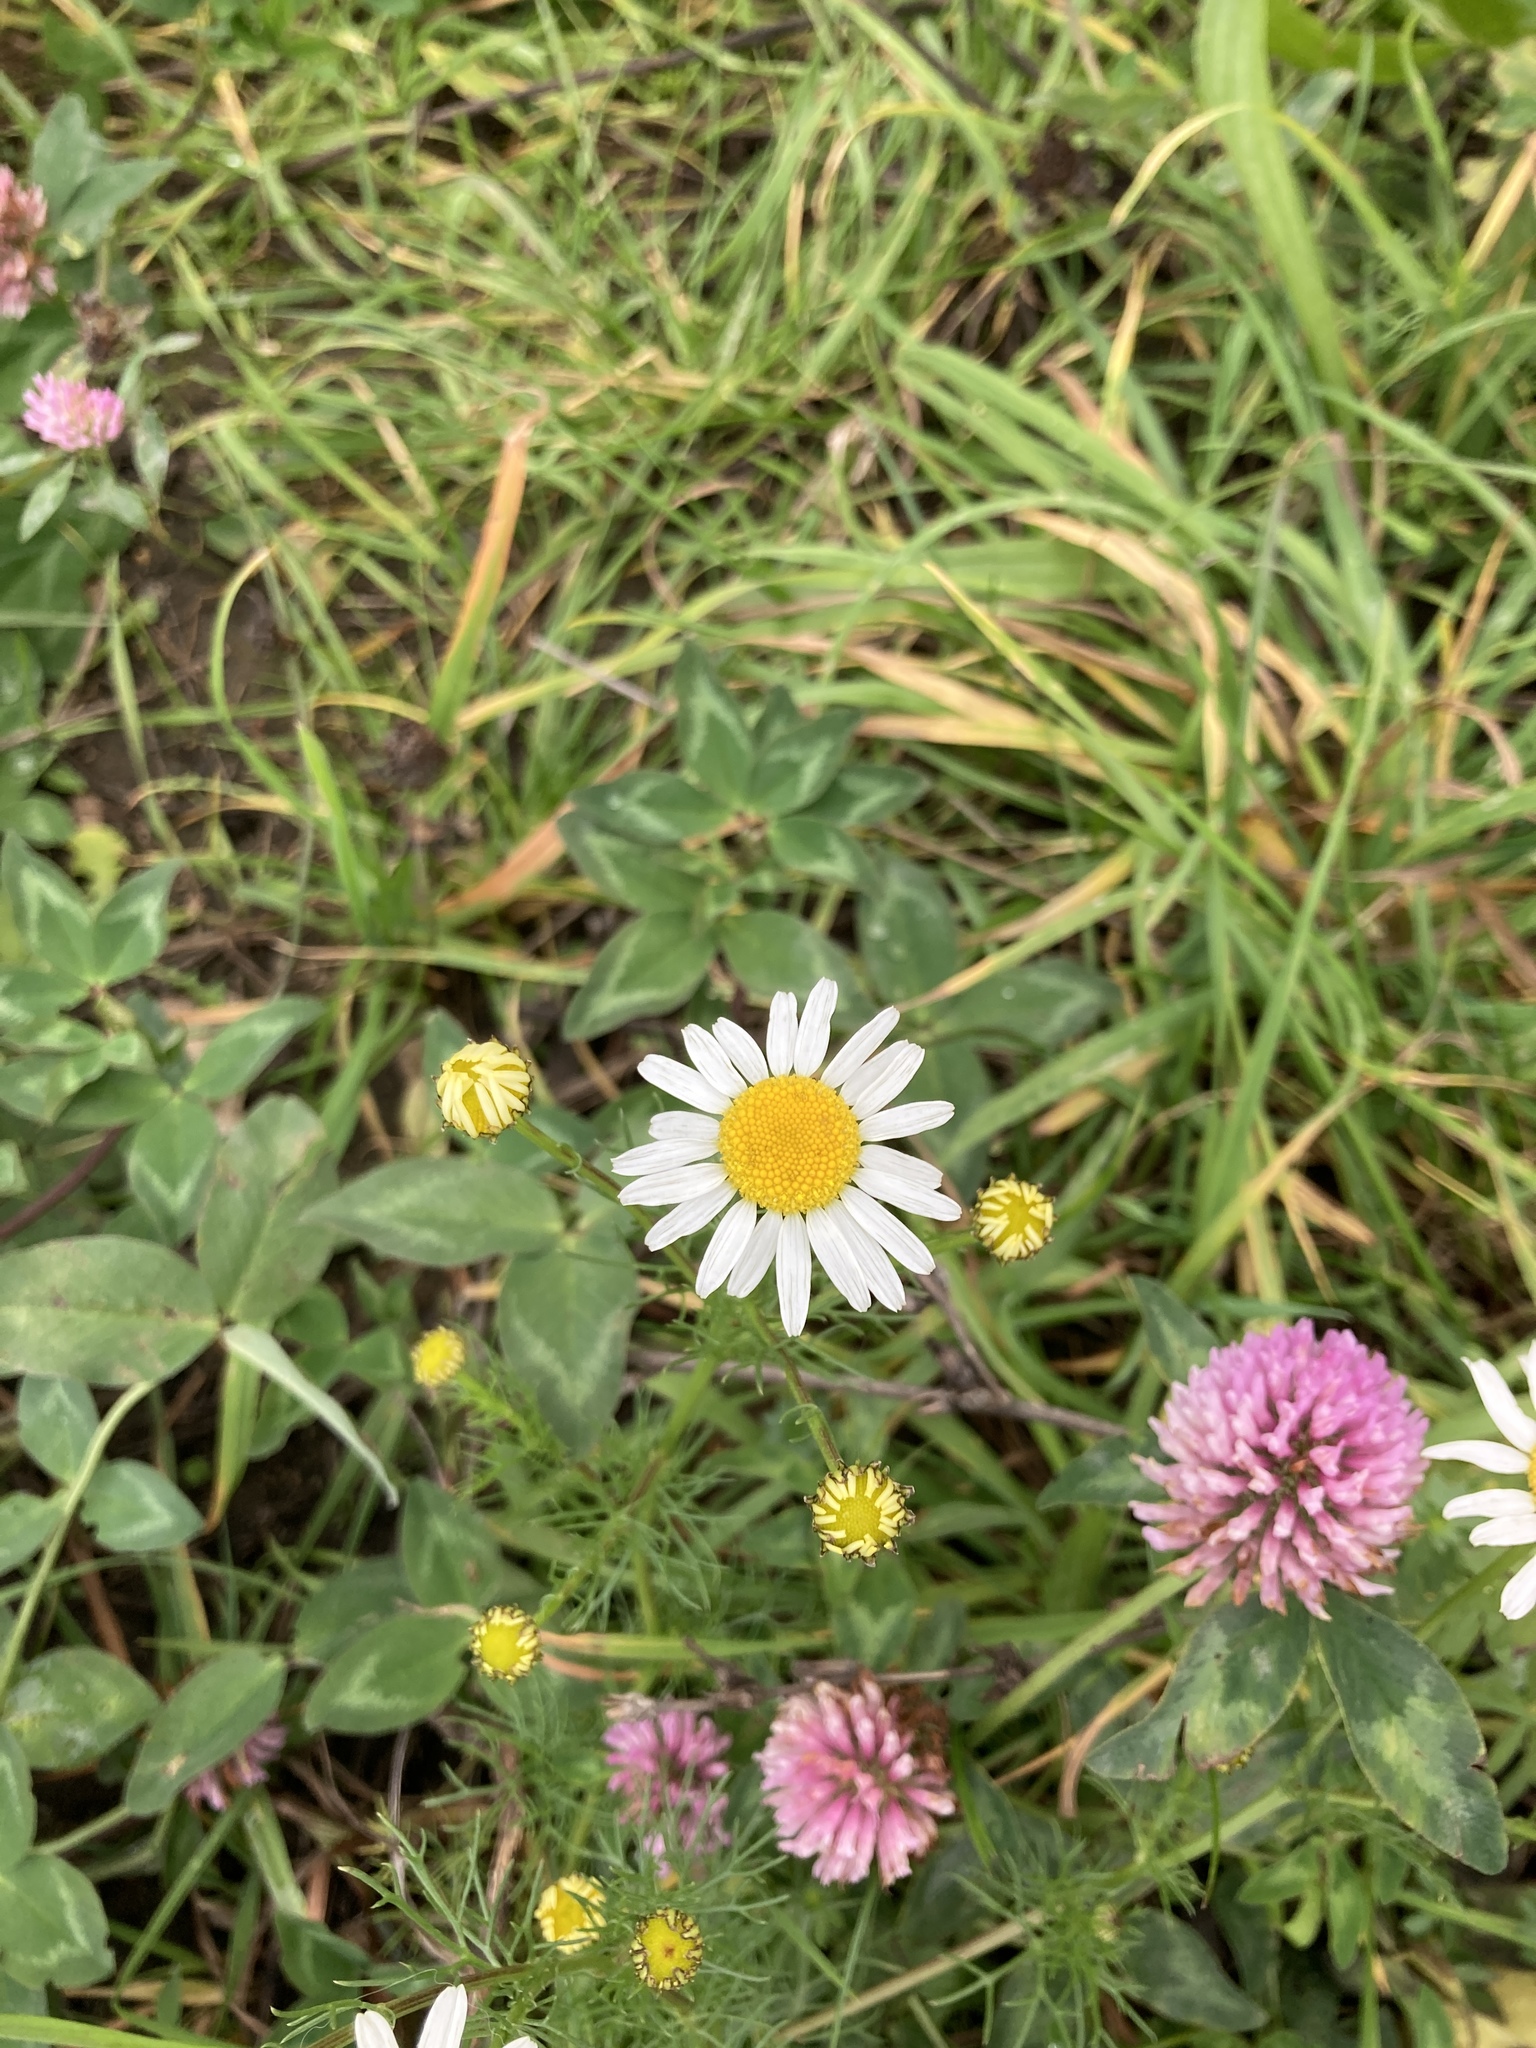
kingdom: Plantae
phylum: Tracheophyta
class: Magnoliopsida
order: Asterales
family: Asteraceae
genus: Tripleurospermum
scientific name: Tripleurospermum inodorum
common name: Scentless mayweed
